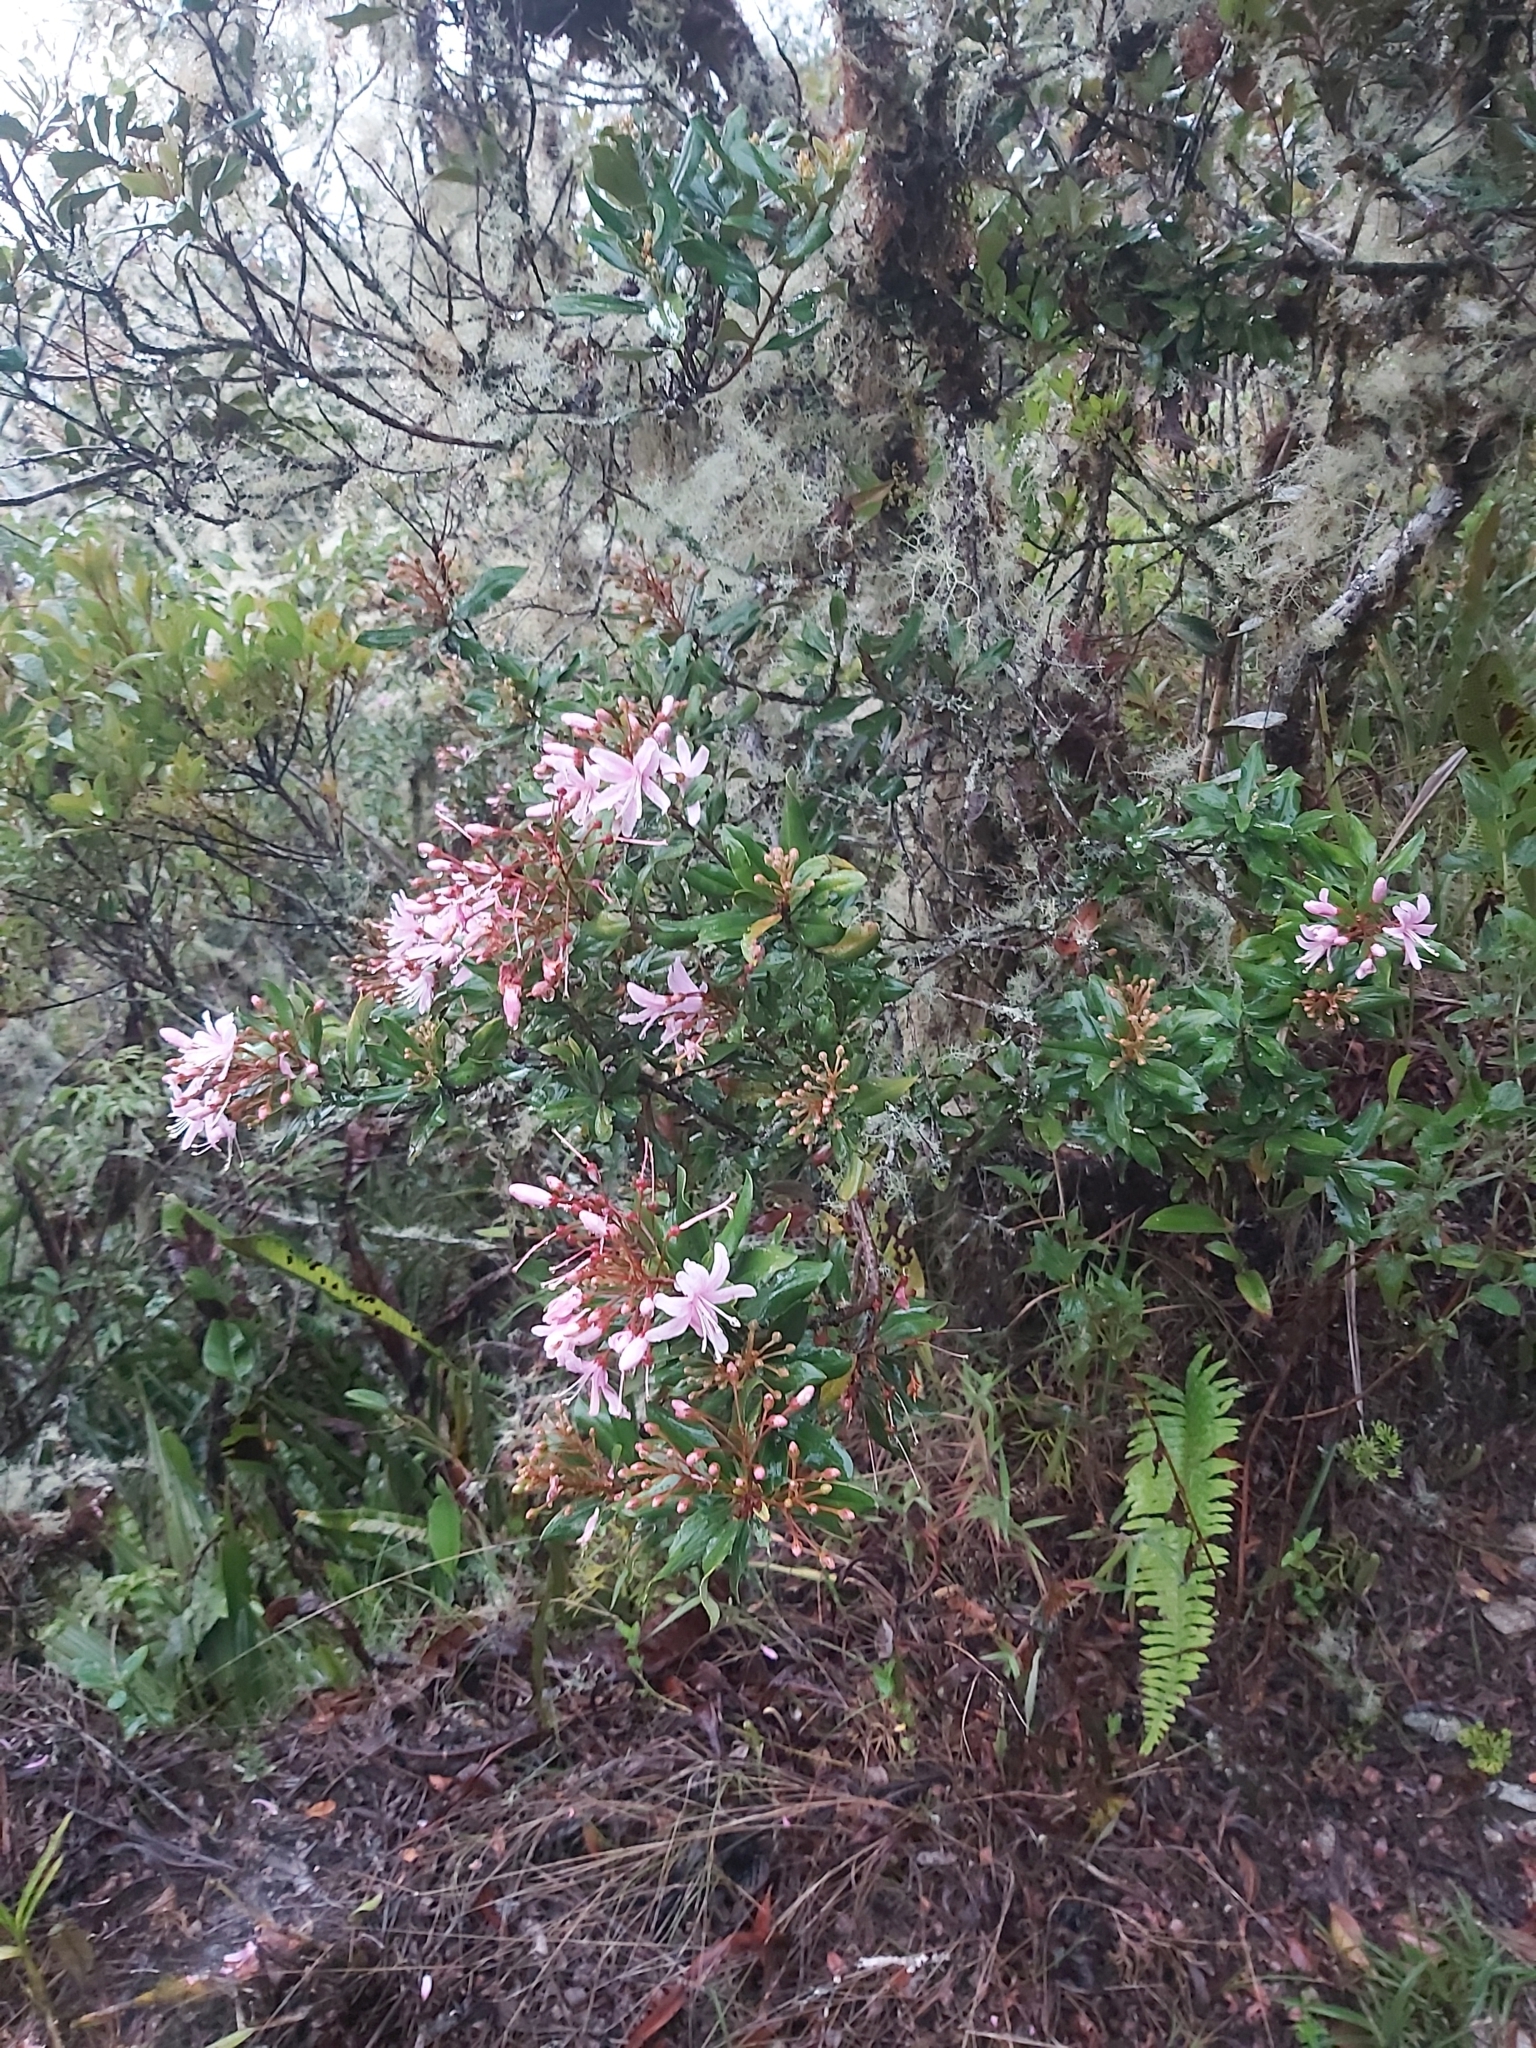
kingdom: Plantae
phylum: Tracheophyta
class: Magnoliopsida
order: Ericales
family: Ericaceae
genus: Bejaria
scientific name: Bejaria aestuans
